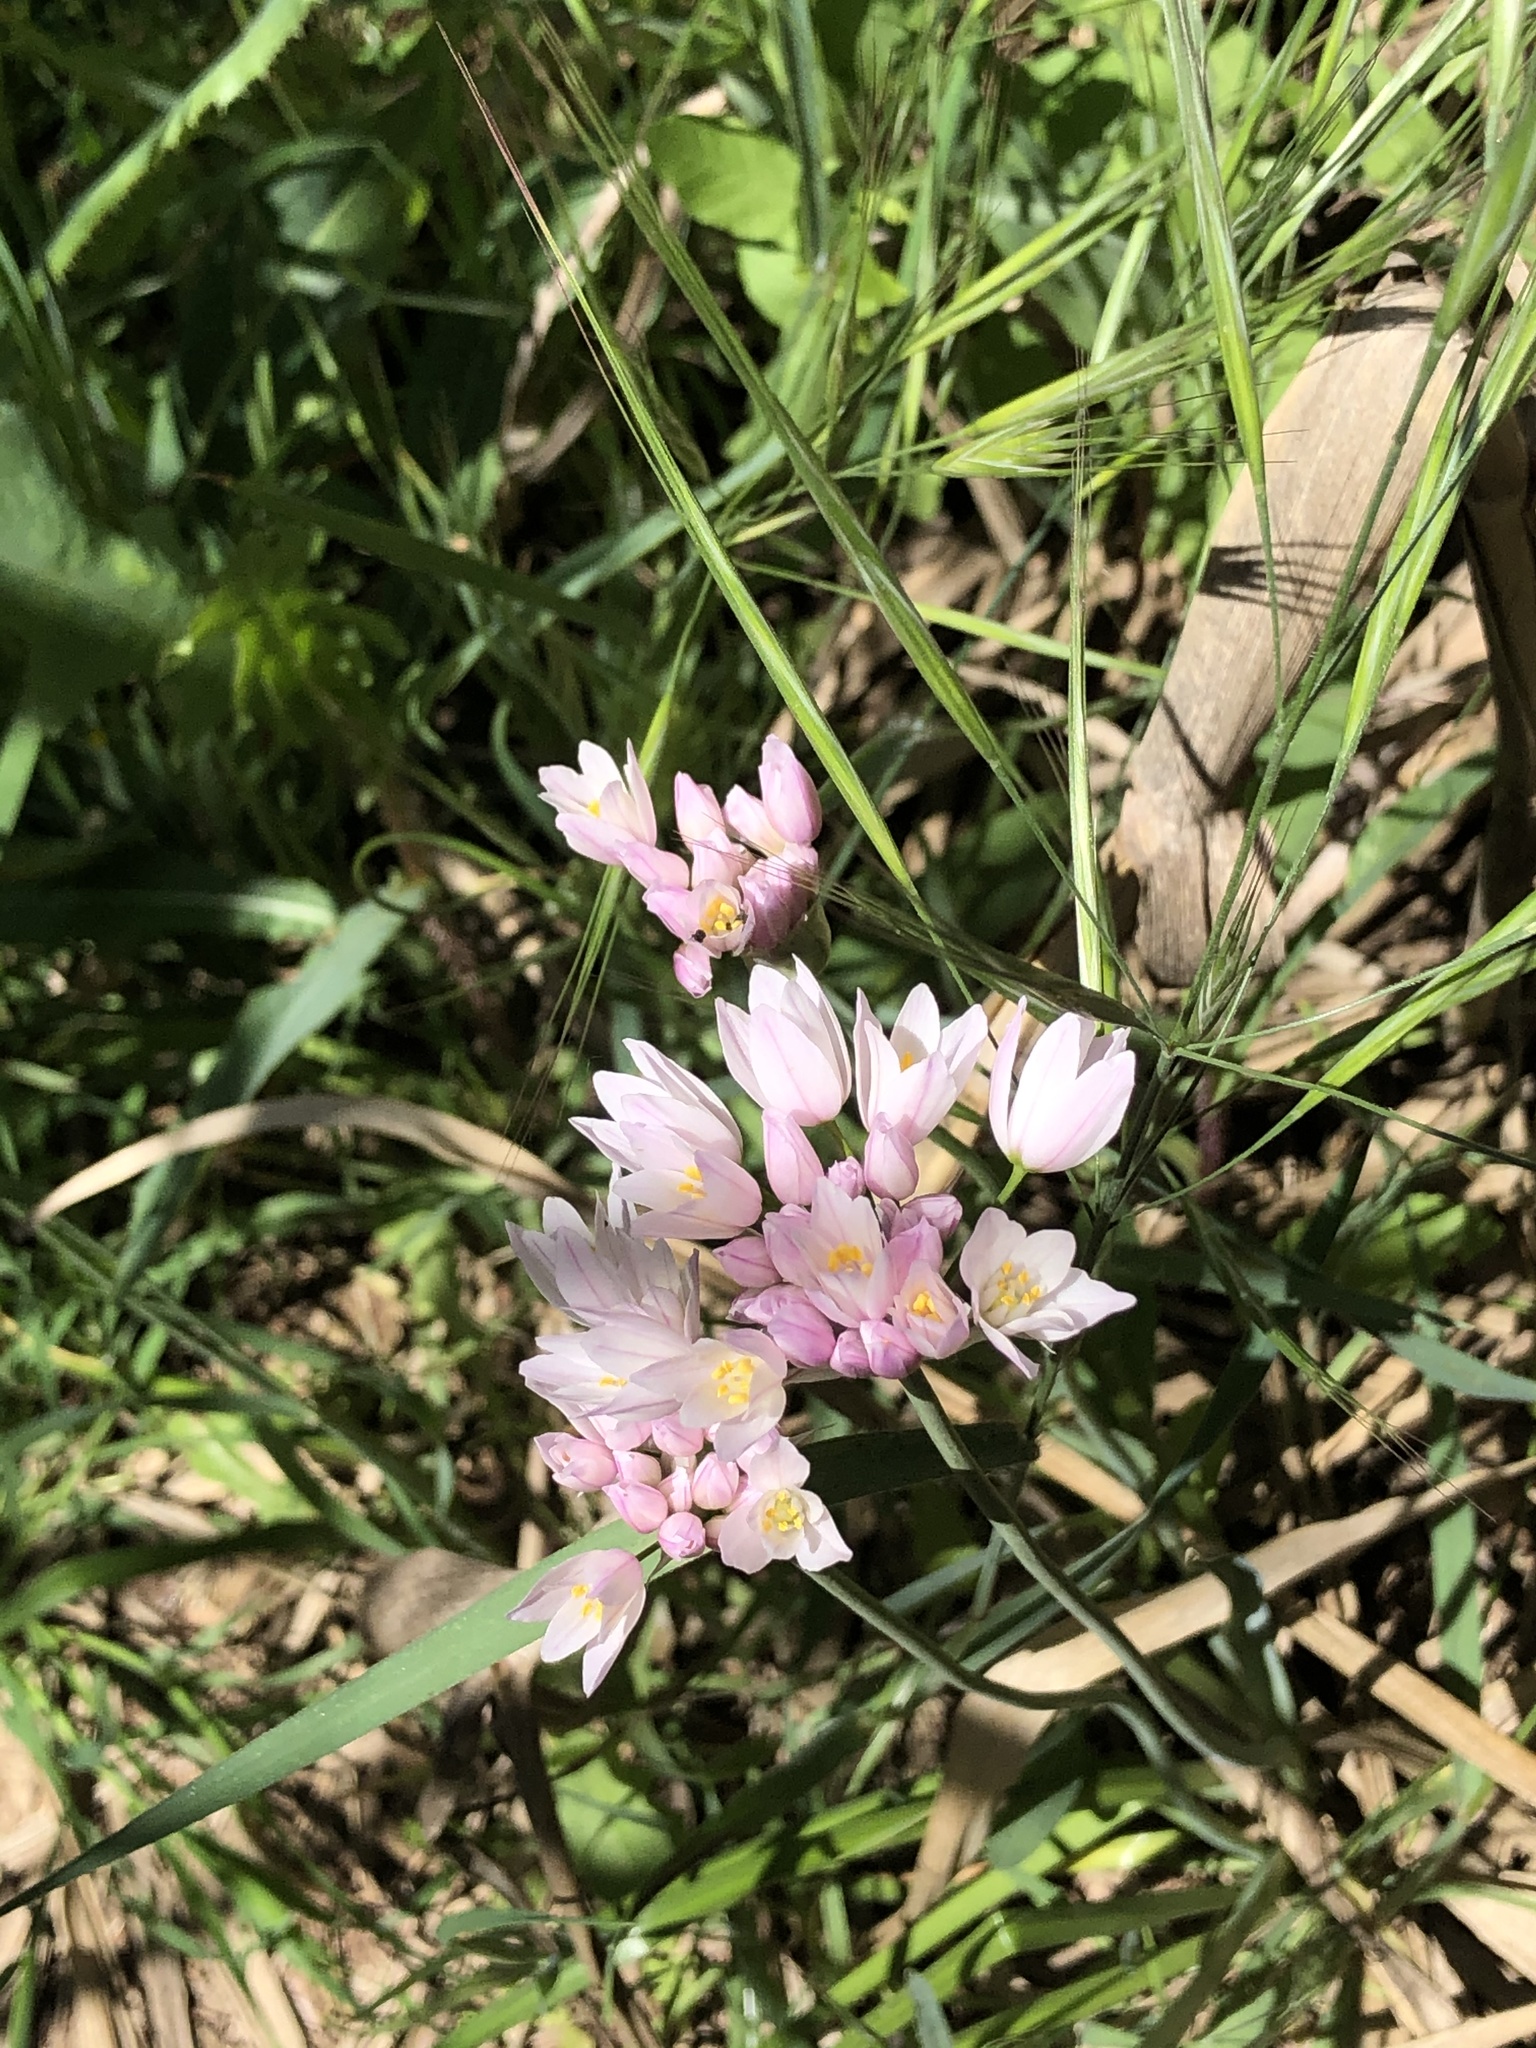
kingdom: Plantae
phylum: Tracheophyta
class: Liliopsida
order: Asparagales
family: Amaryllidaceae
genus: Allium
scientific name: Allium roseum
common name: Rosy garlic
